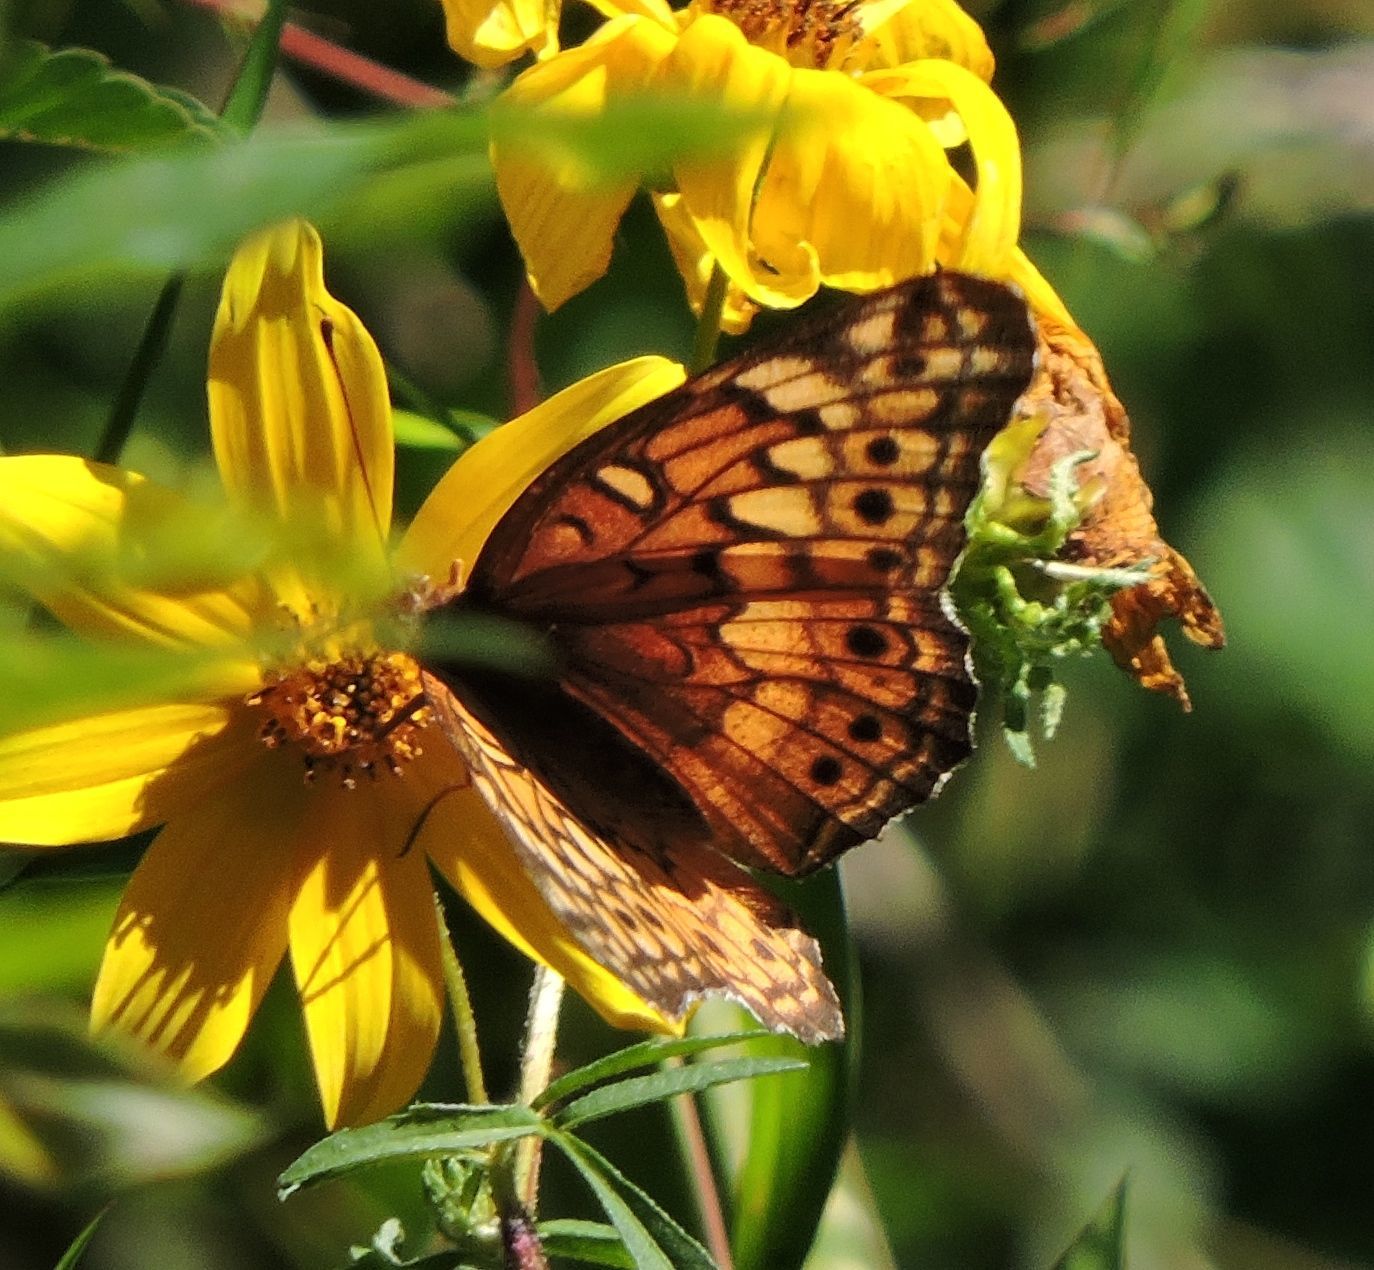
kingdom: Animalia
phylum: Arthropoda
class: Insecta
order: Lepidoptera
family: Nymphalidae
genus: Euptoieta
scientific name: Euptoieta claudia
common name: Variegated fritillary
